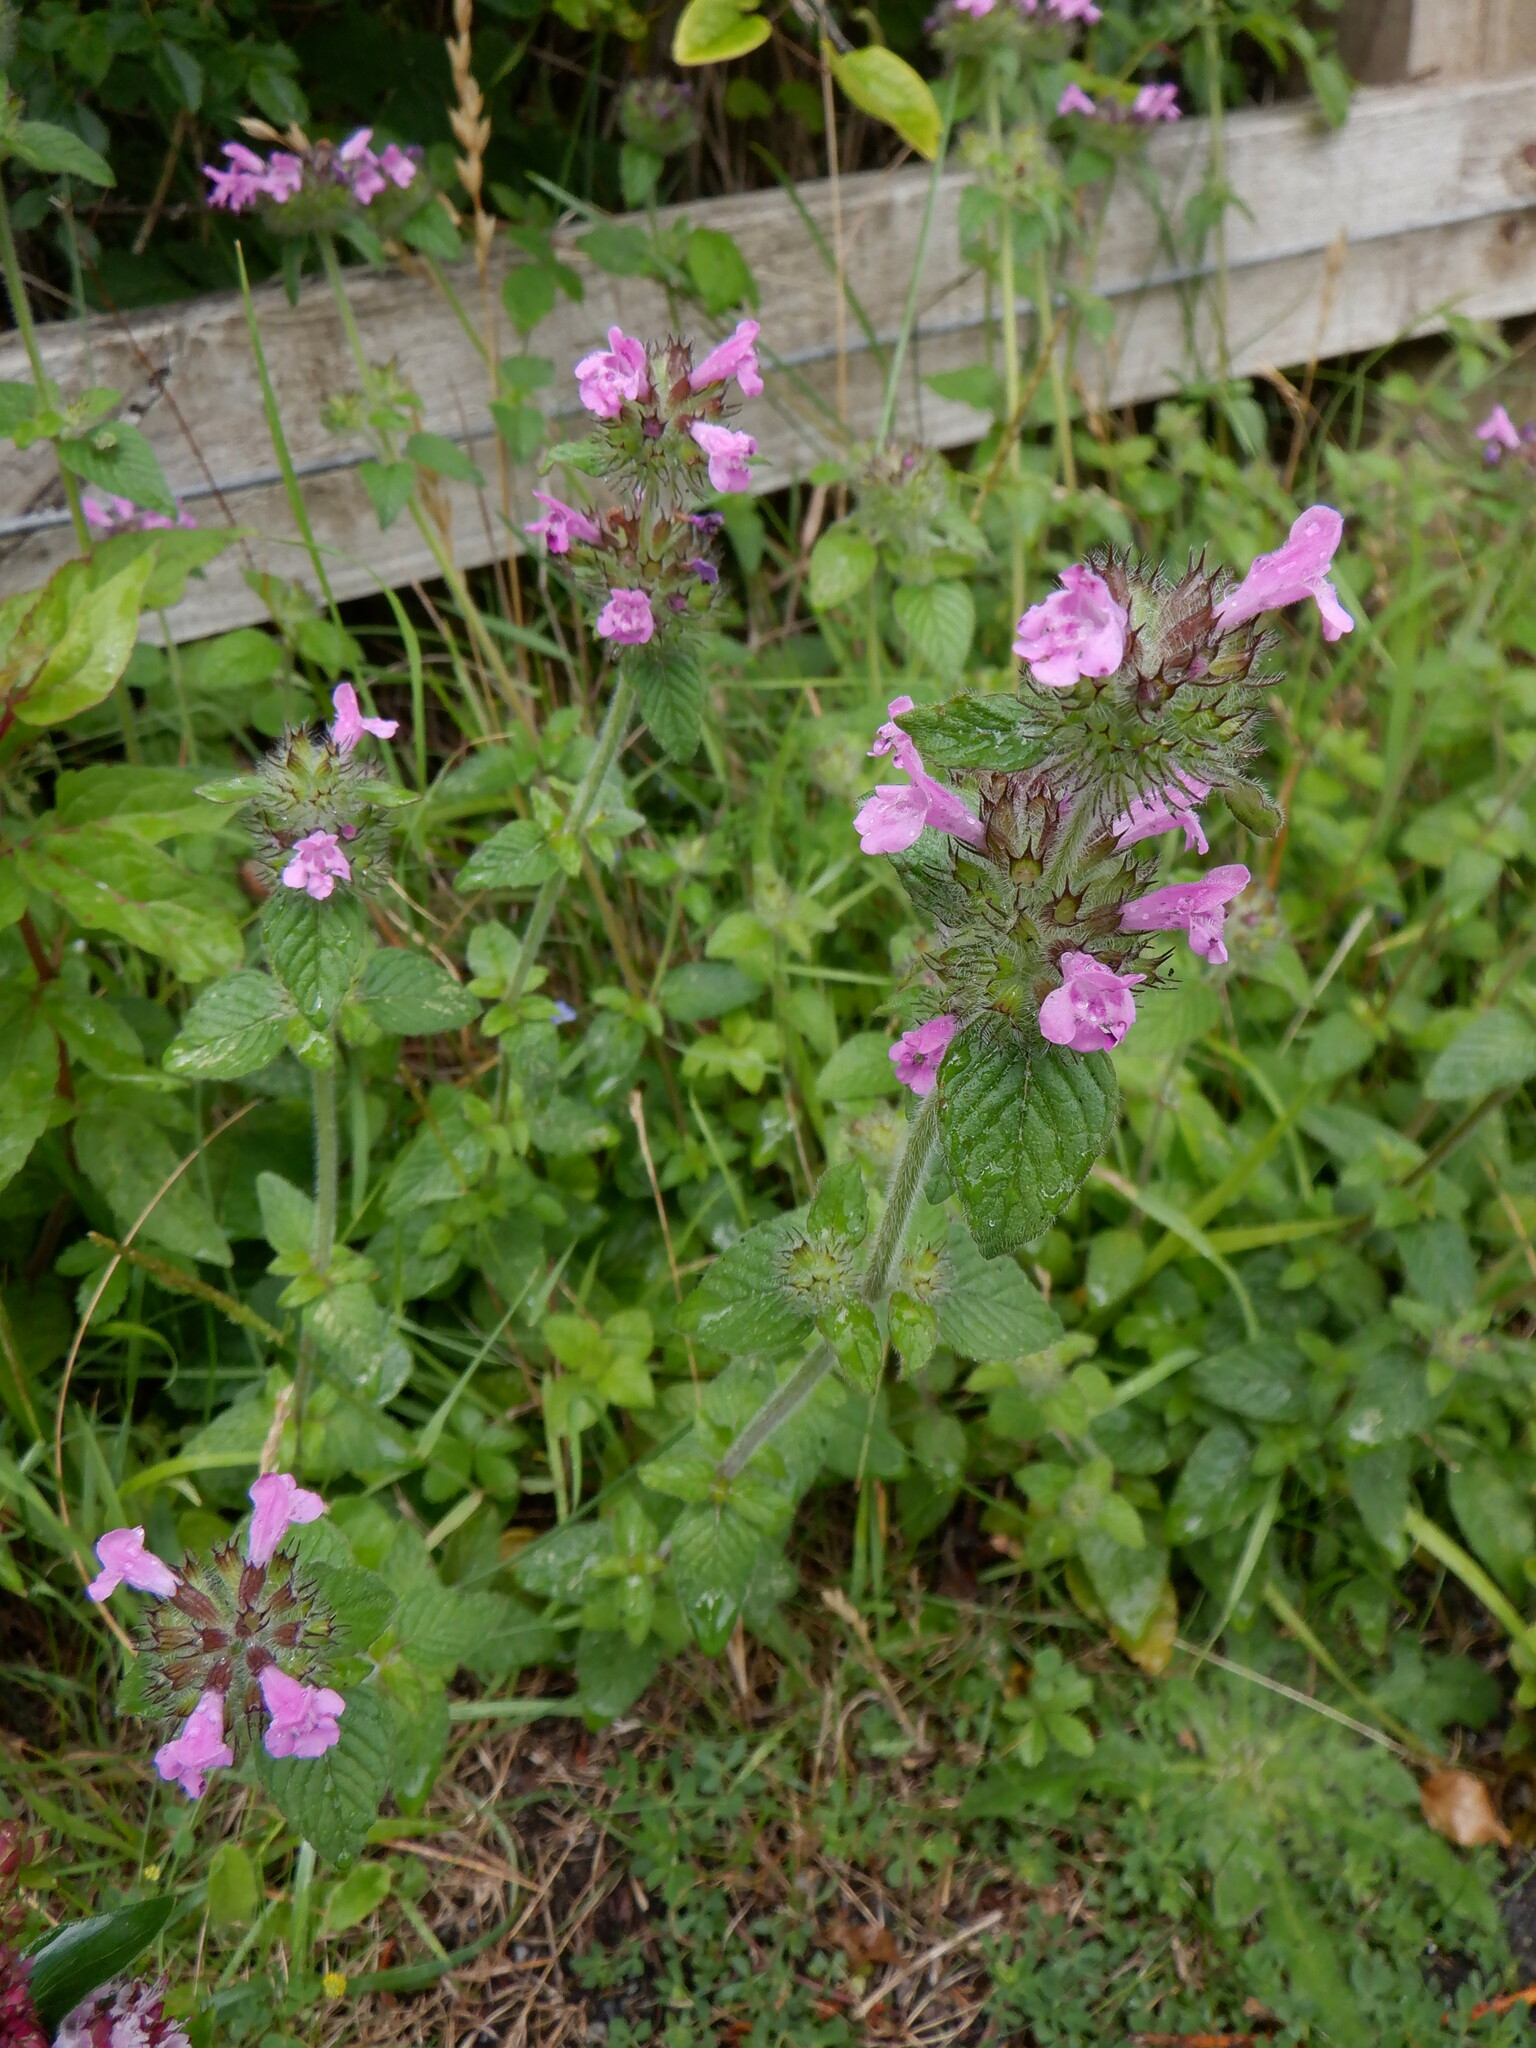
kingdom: Plantae
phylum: Tracheophyta
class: Magnoliopsida
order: Lamiales
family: Lamiaceae
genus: Clinopodium
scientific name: Clinopodium vulgare
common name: Wild basil
